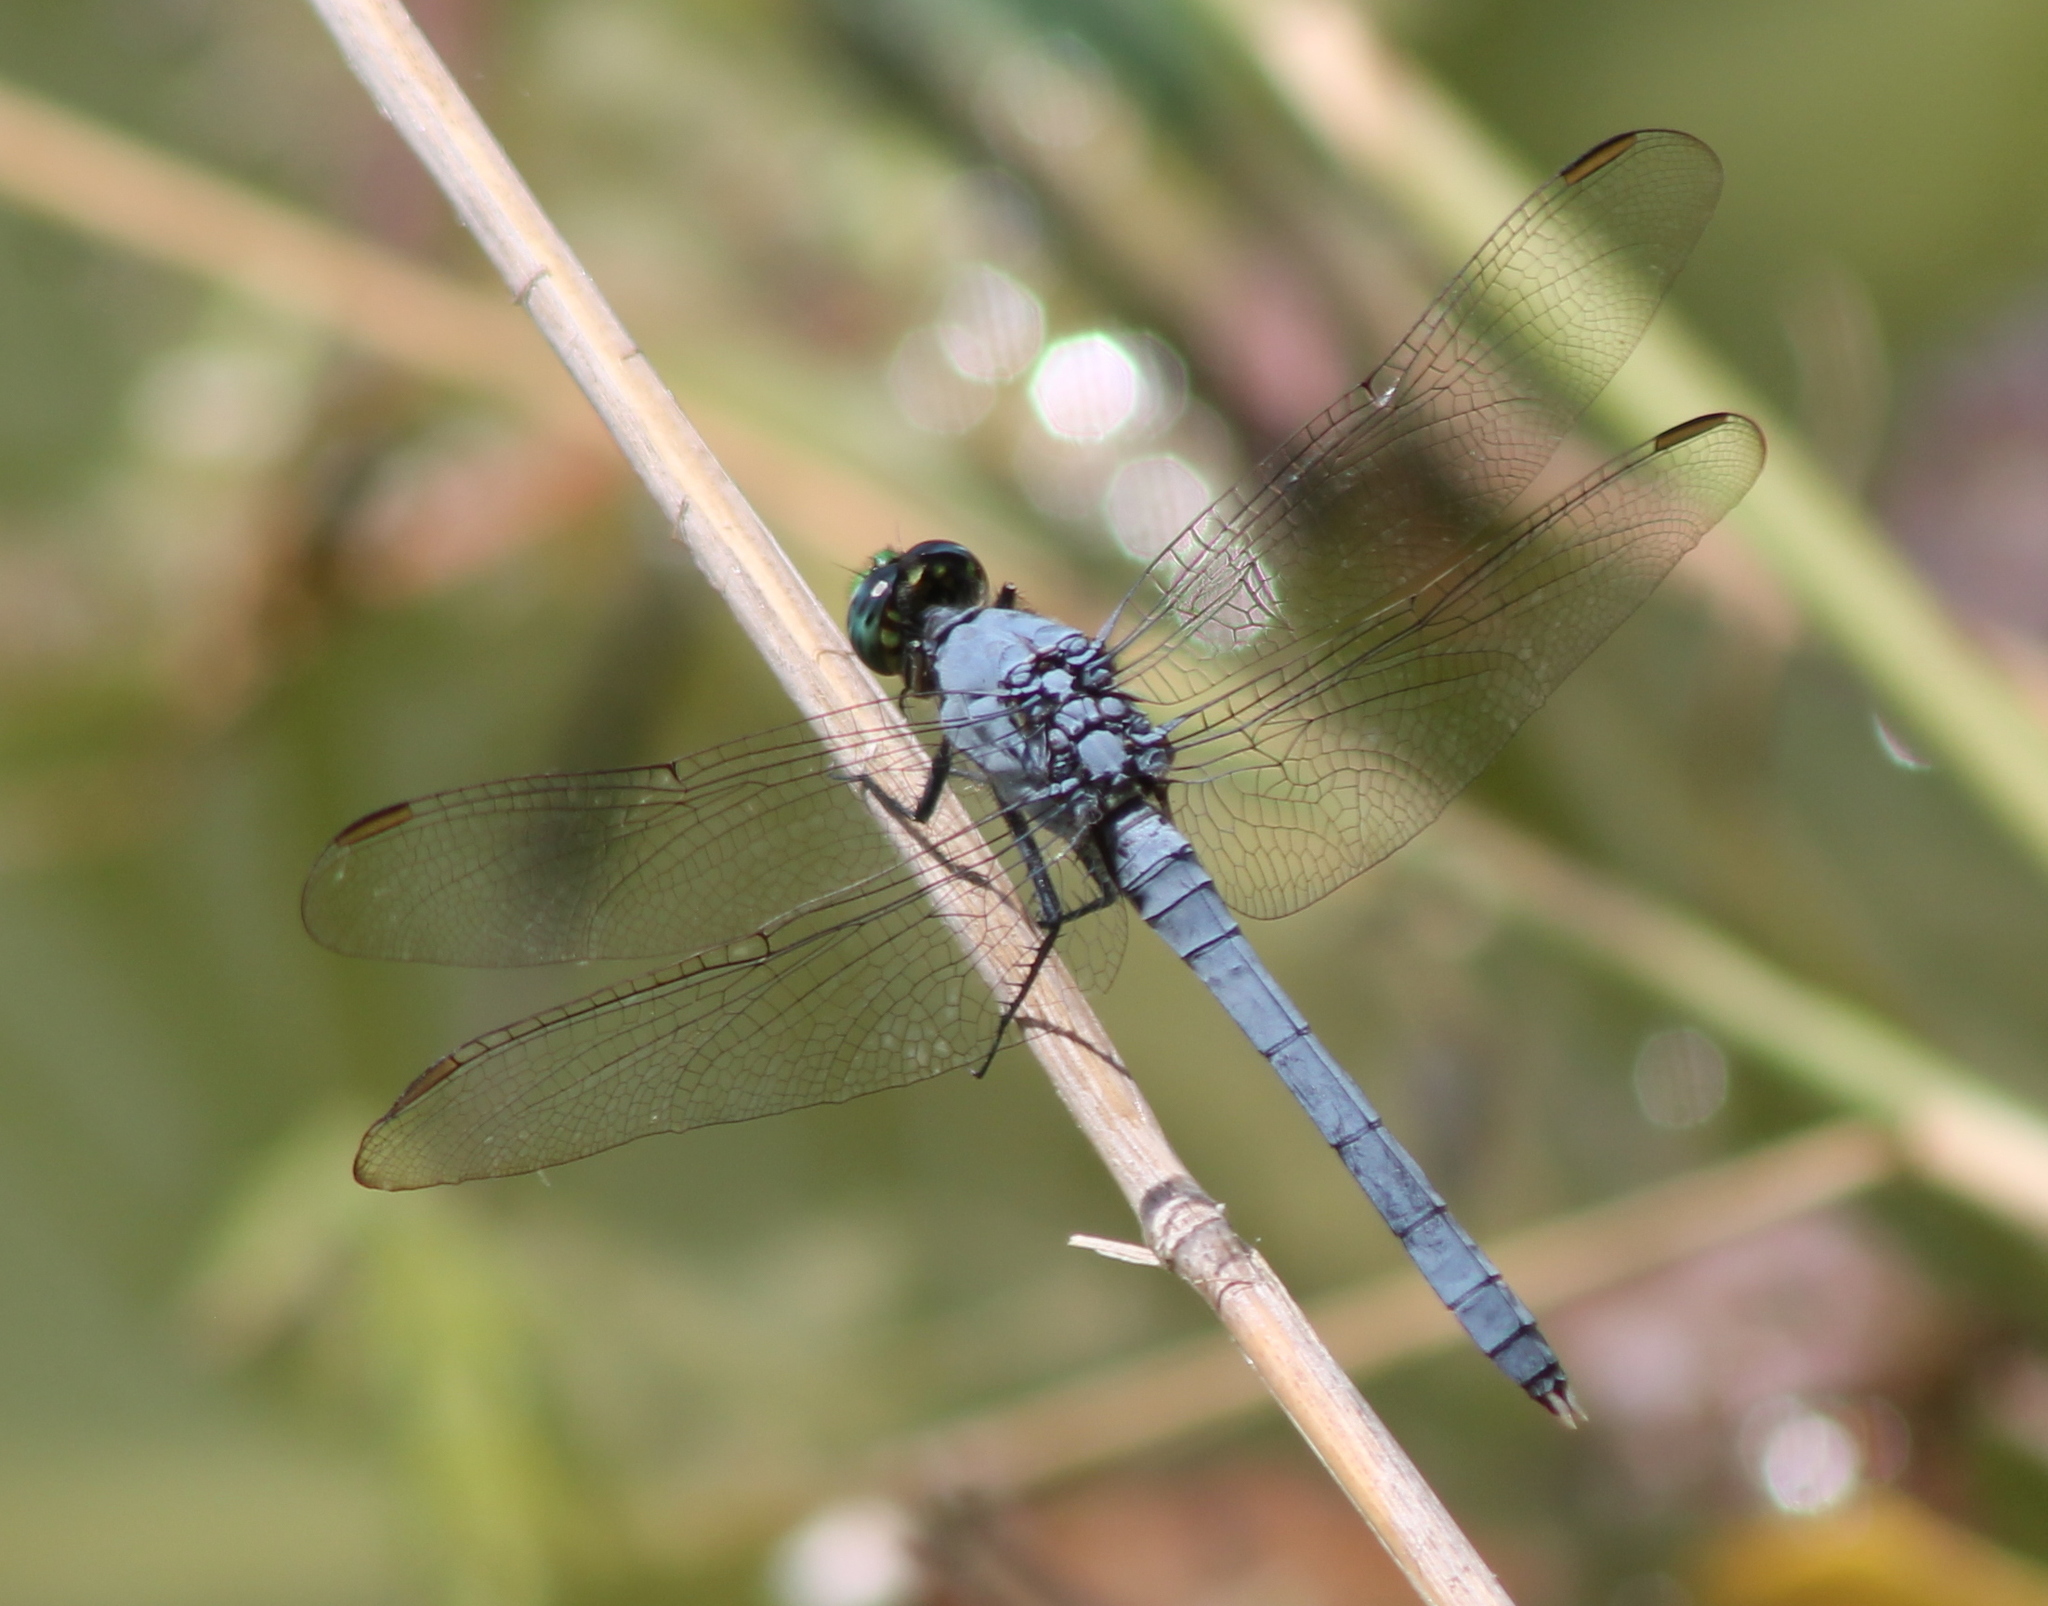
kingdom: Animalia
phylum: Arthropoda
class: Insecta
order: Odonata
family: Libellulidae
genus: Erythemis
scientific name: Erythemis simplicicollis
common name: Eastern pondhawk
